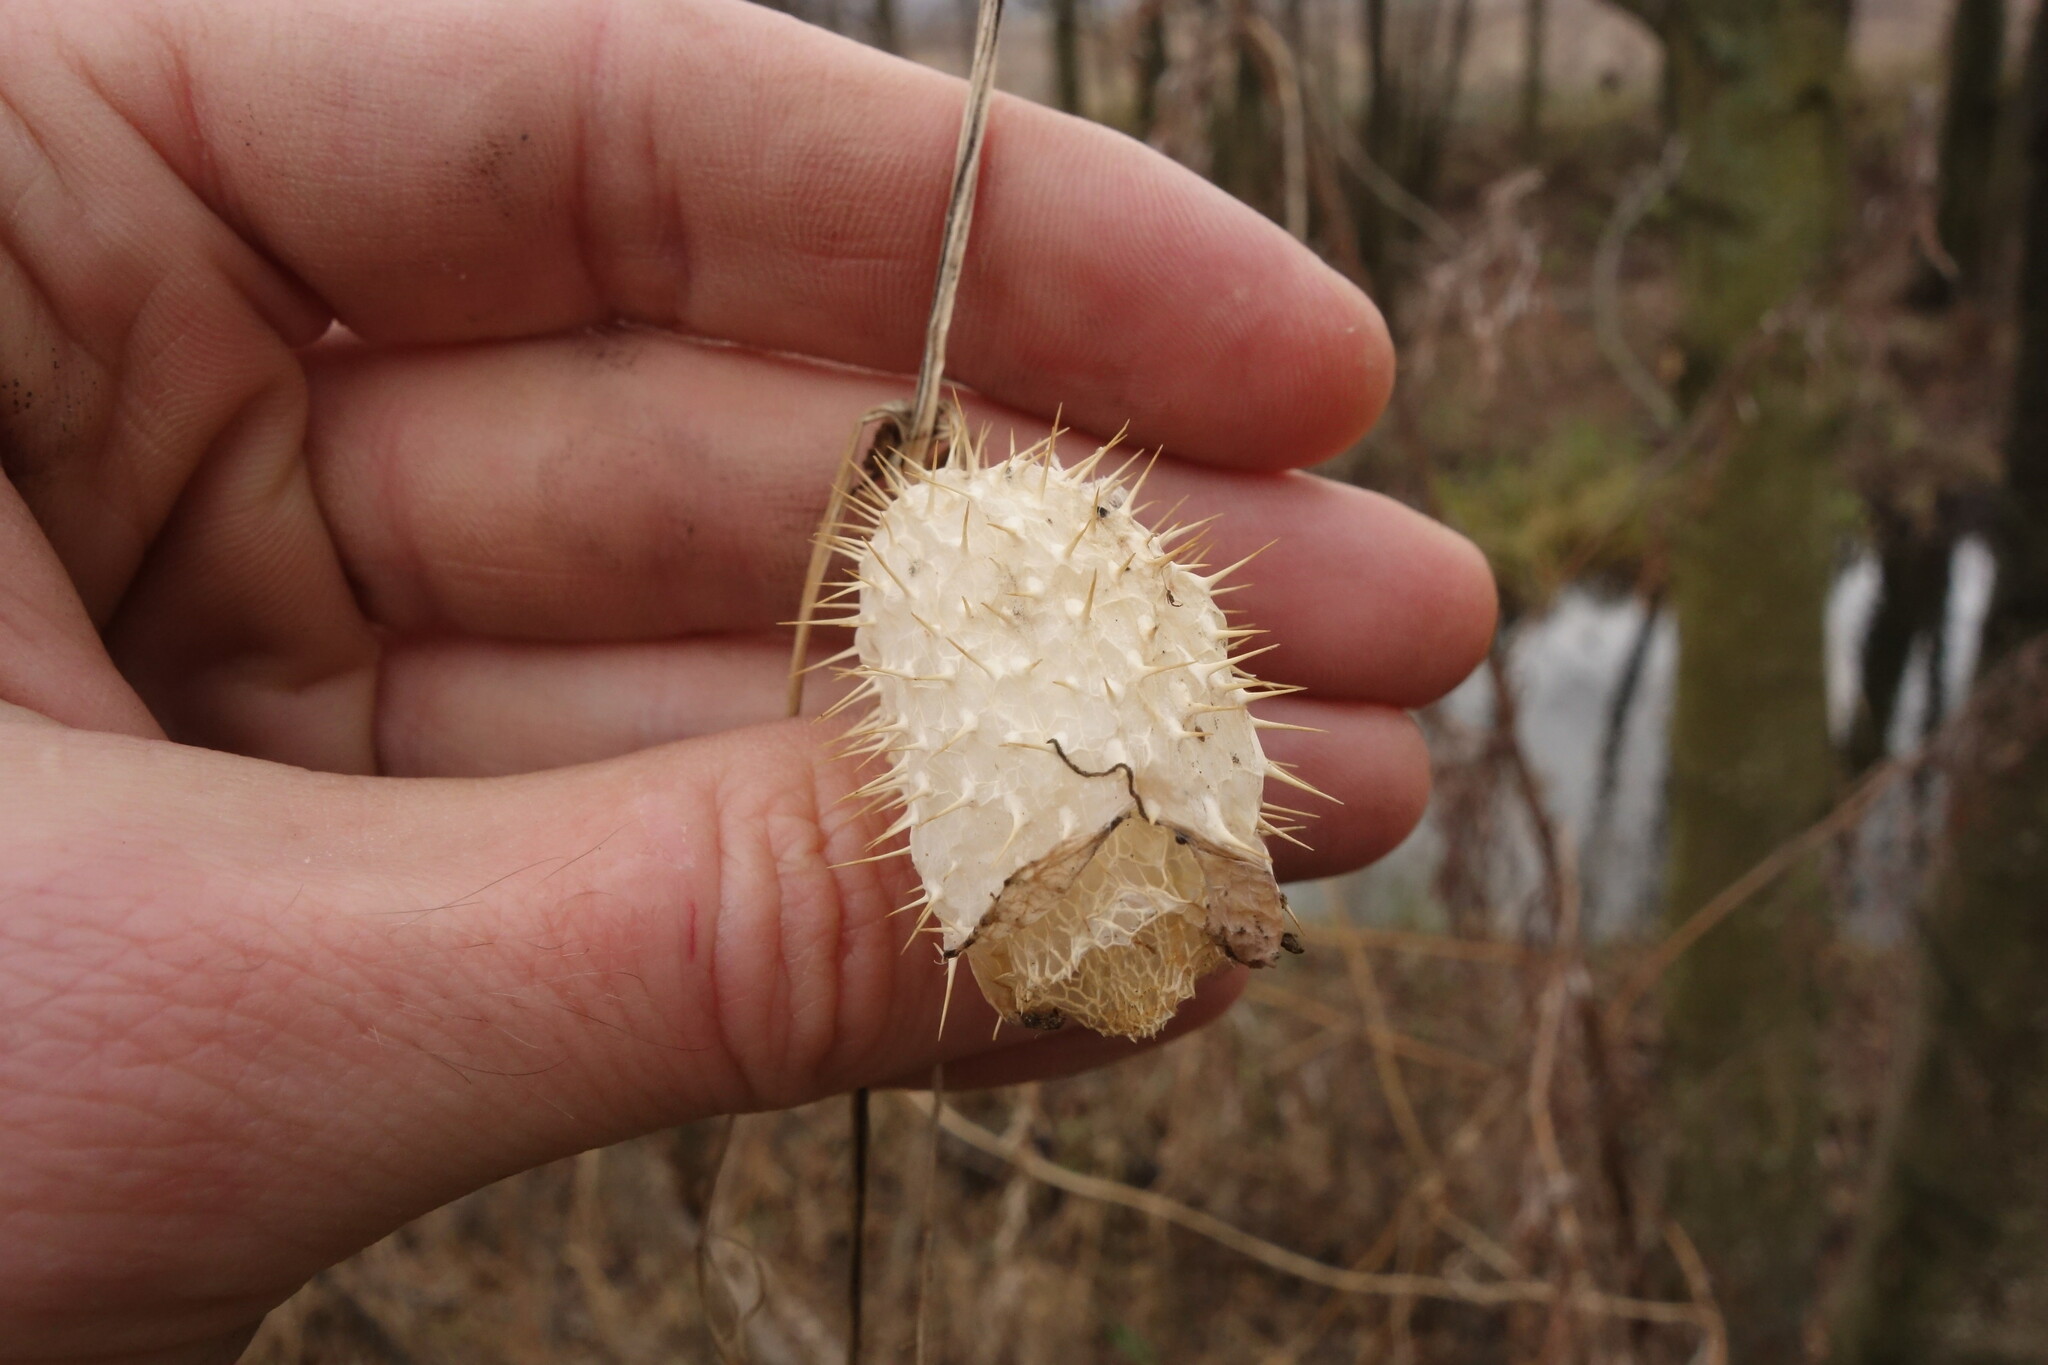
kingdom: Plantae
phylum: Tracheophyta
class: Magnoliopsida
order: Cucurbitales
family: Cucurbitaceae
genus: Echinocystis
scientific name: Echinocystis lobata
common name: Wild cucumber
